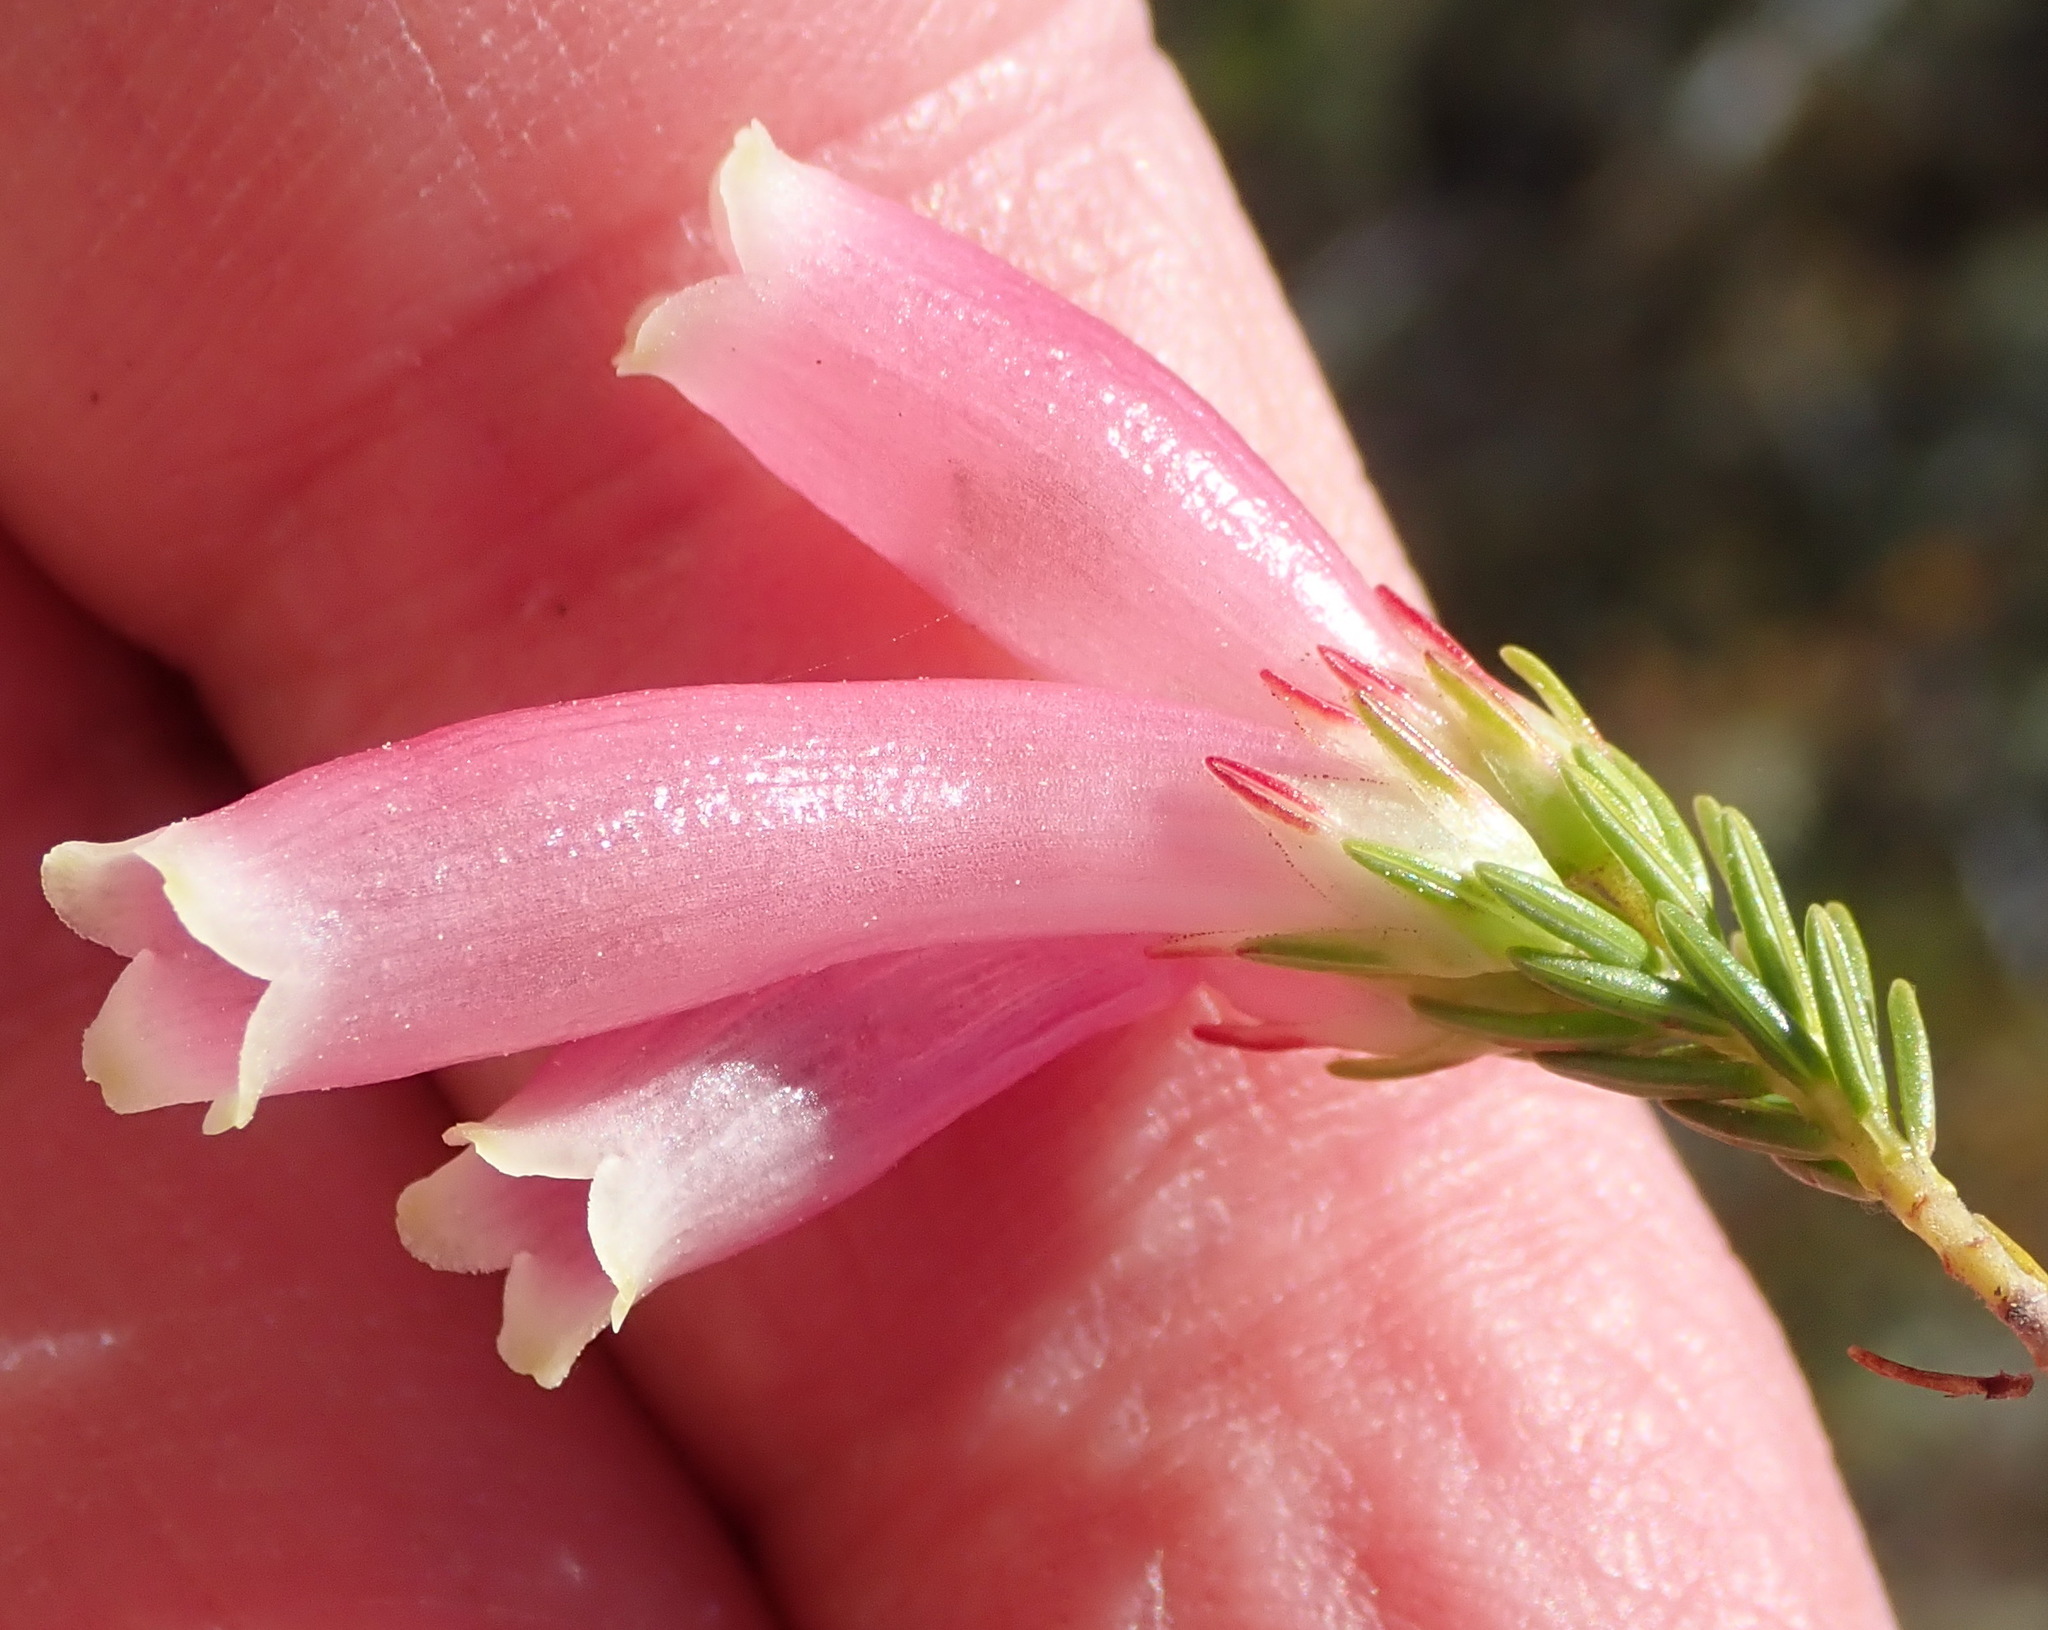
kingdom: Plantae
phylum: Tracheophyta
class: Magnoliopsida
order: Ericales
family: Ericaceae
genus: Erica
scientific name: Erica discolor
